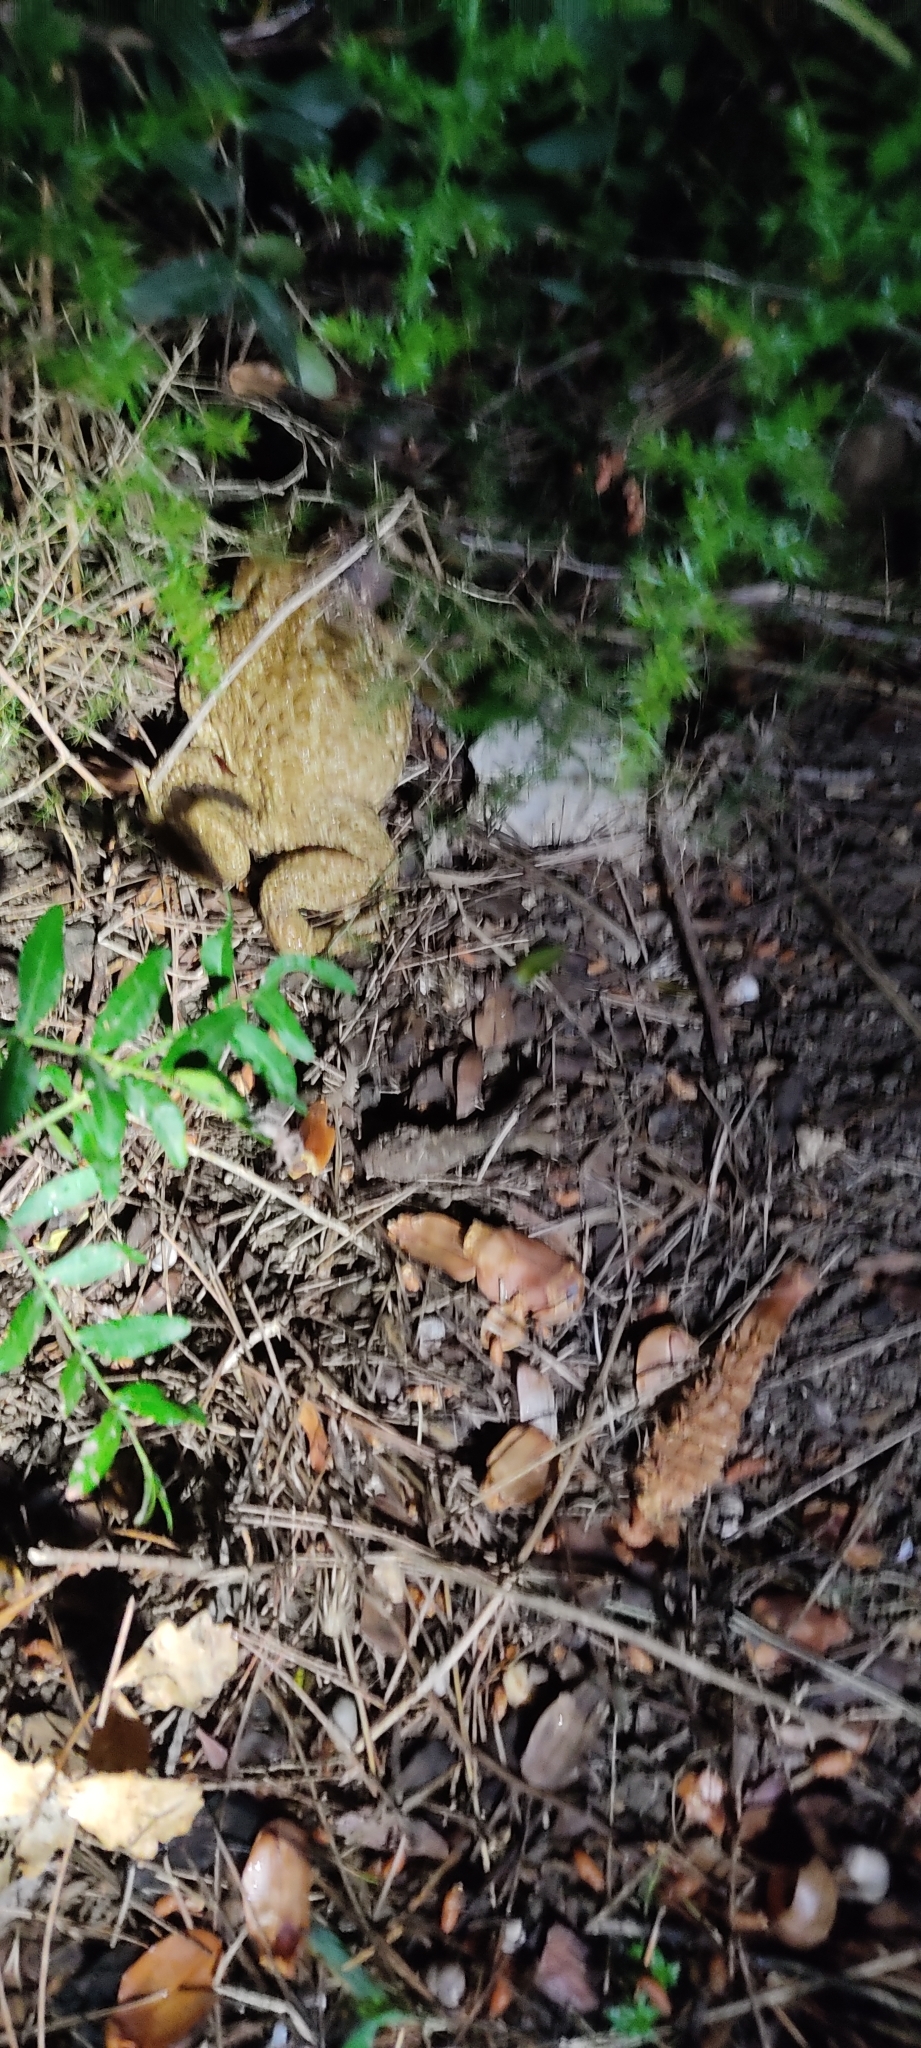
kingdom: Animalia
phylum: Chordata
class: Amphibia
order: Anura
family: Bufonidae
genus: Bufo
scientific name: Bufo spinosus
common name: Western common toad
